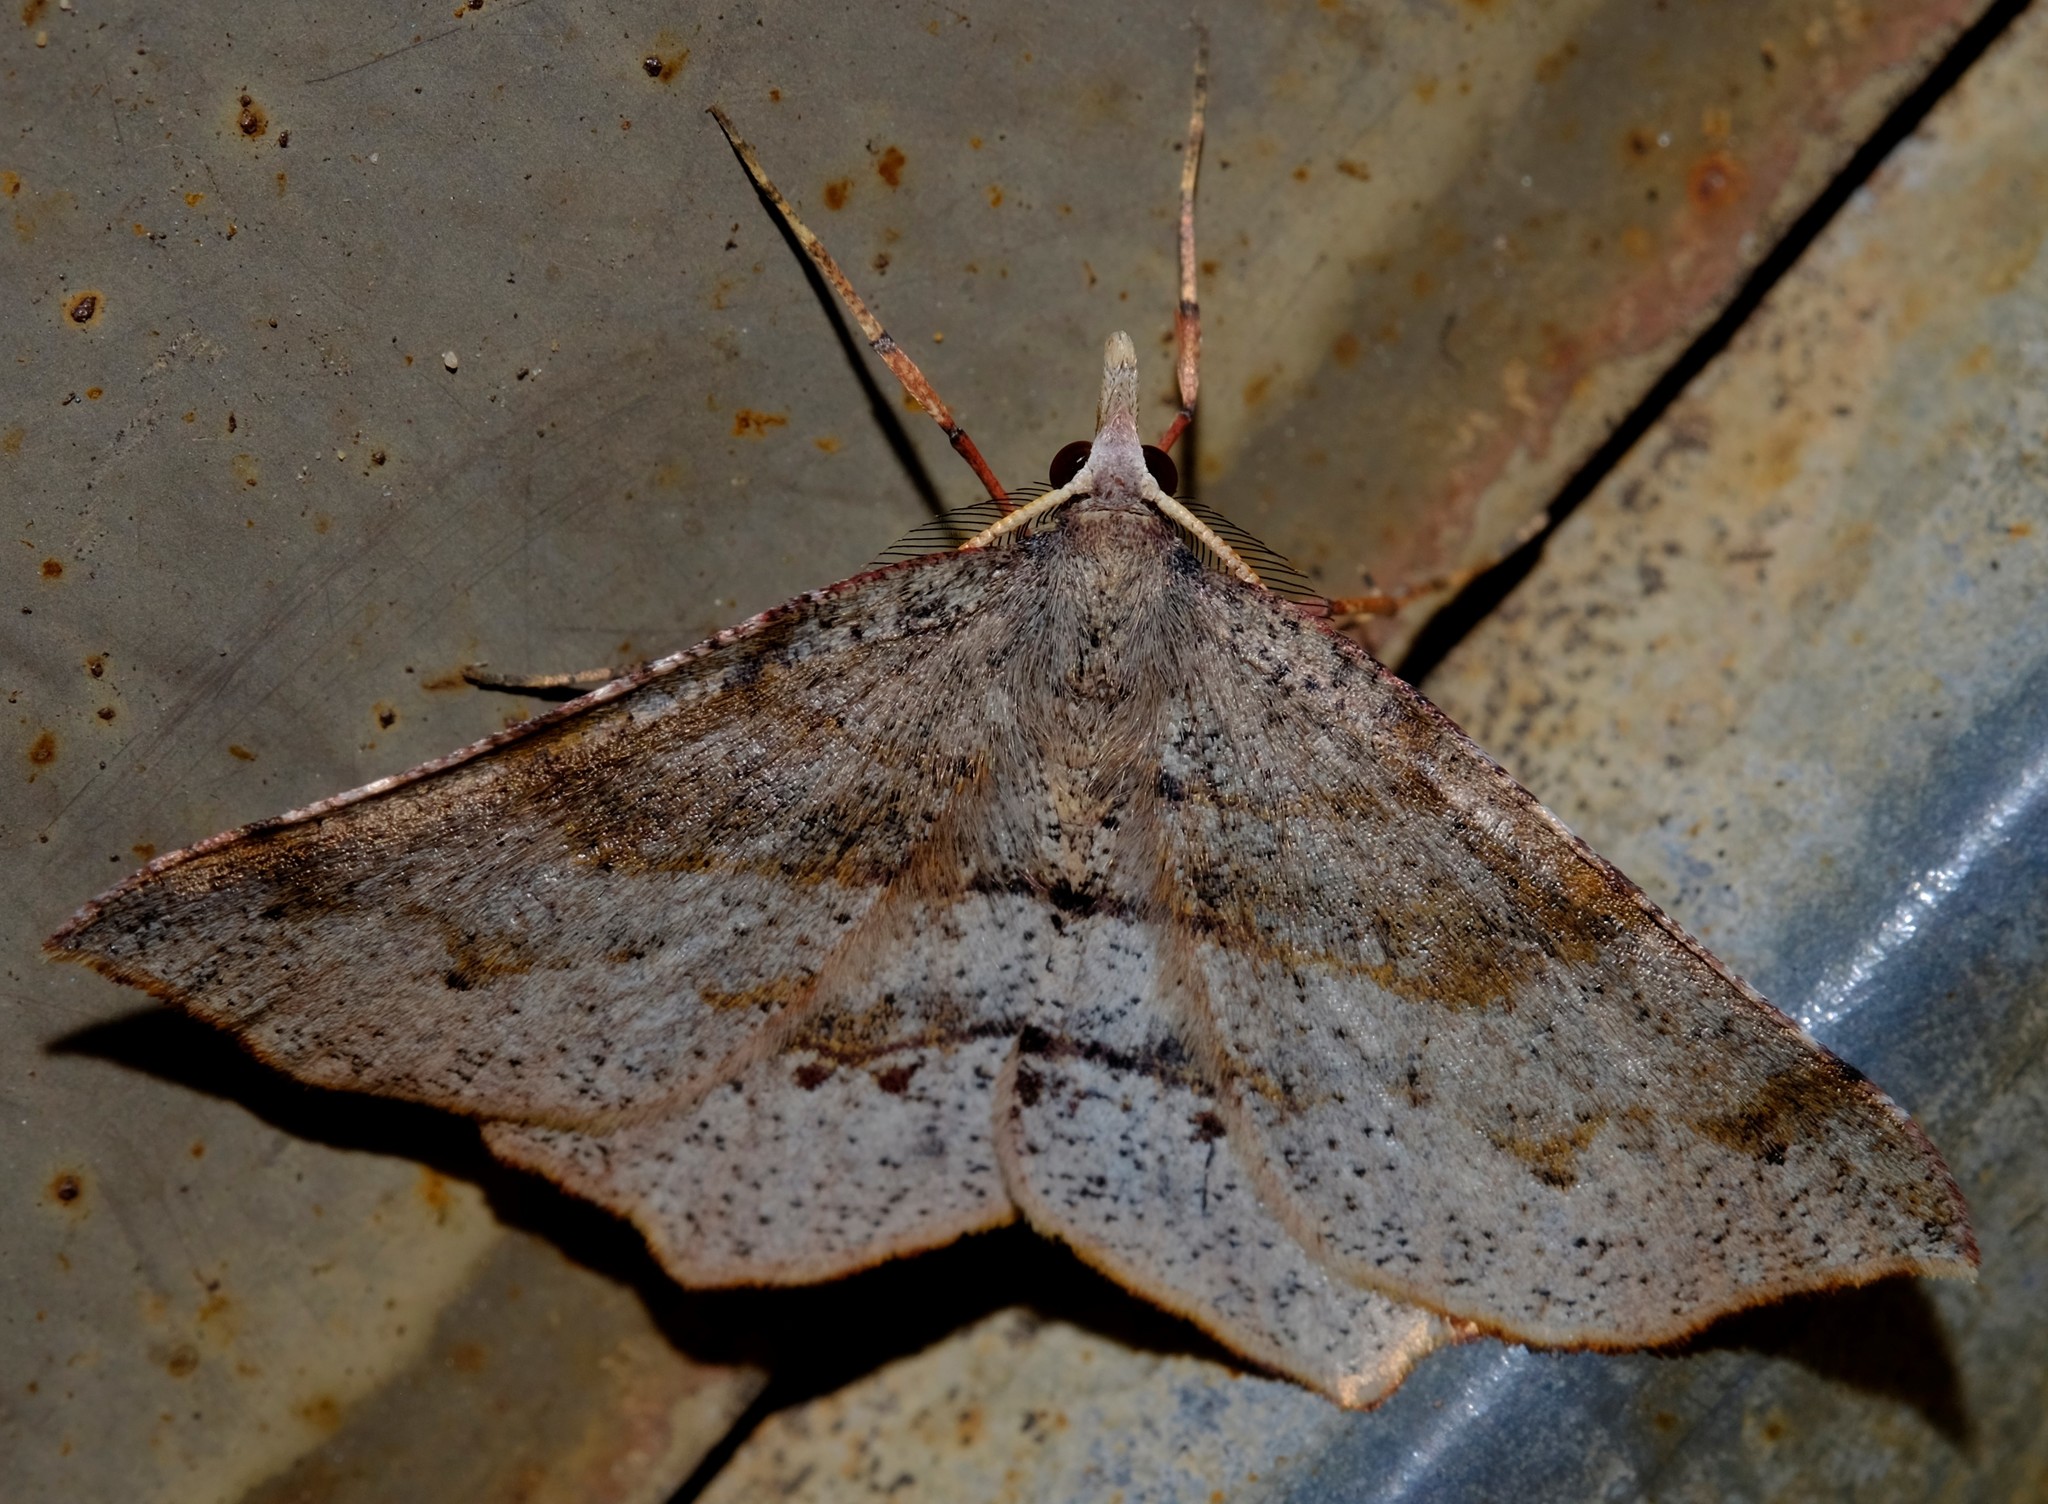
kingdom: Animalia
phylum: Arthropoda
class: Insecta
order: Lepidoptera
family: Geometridae
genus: Rhinodia
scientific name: Rhinodia rostraria
